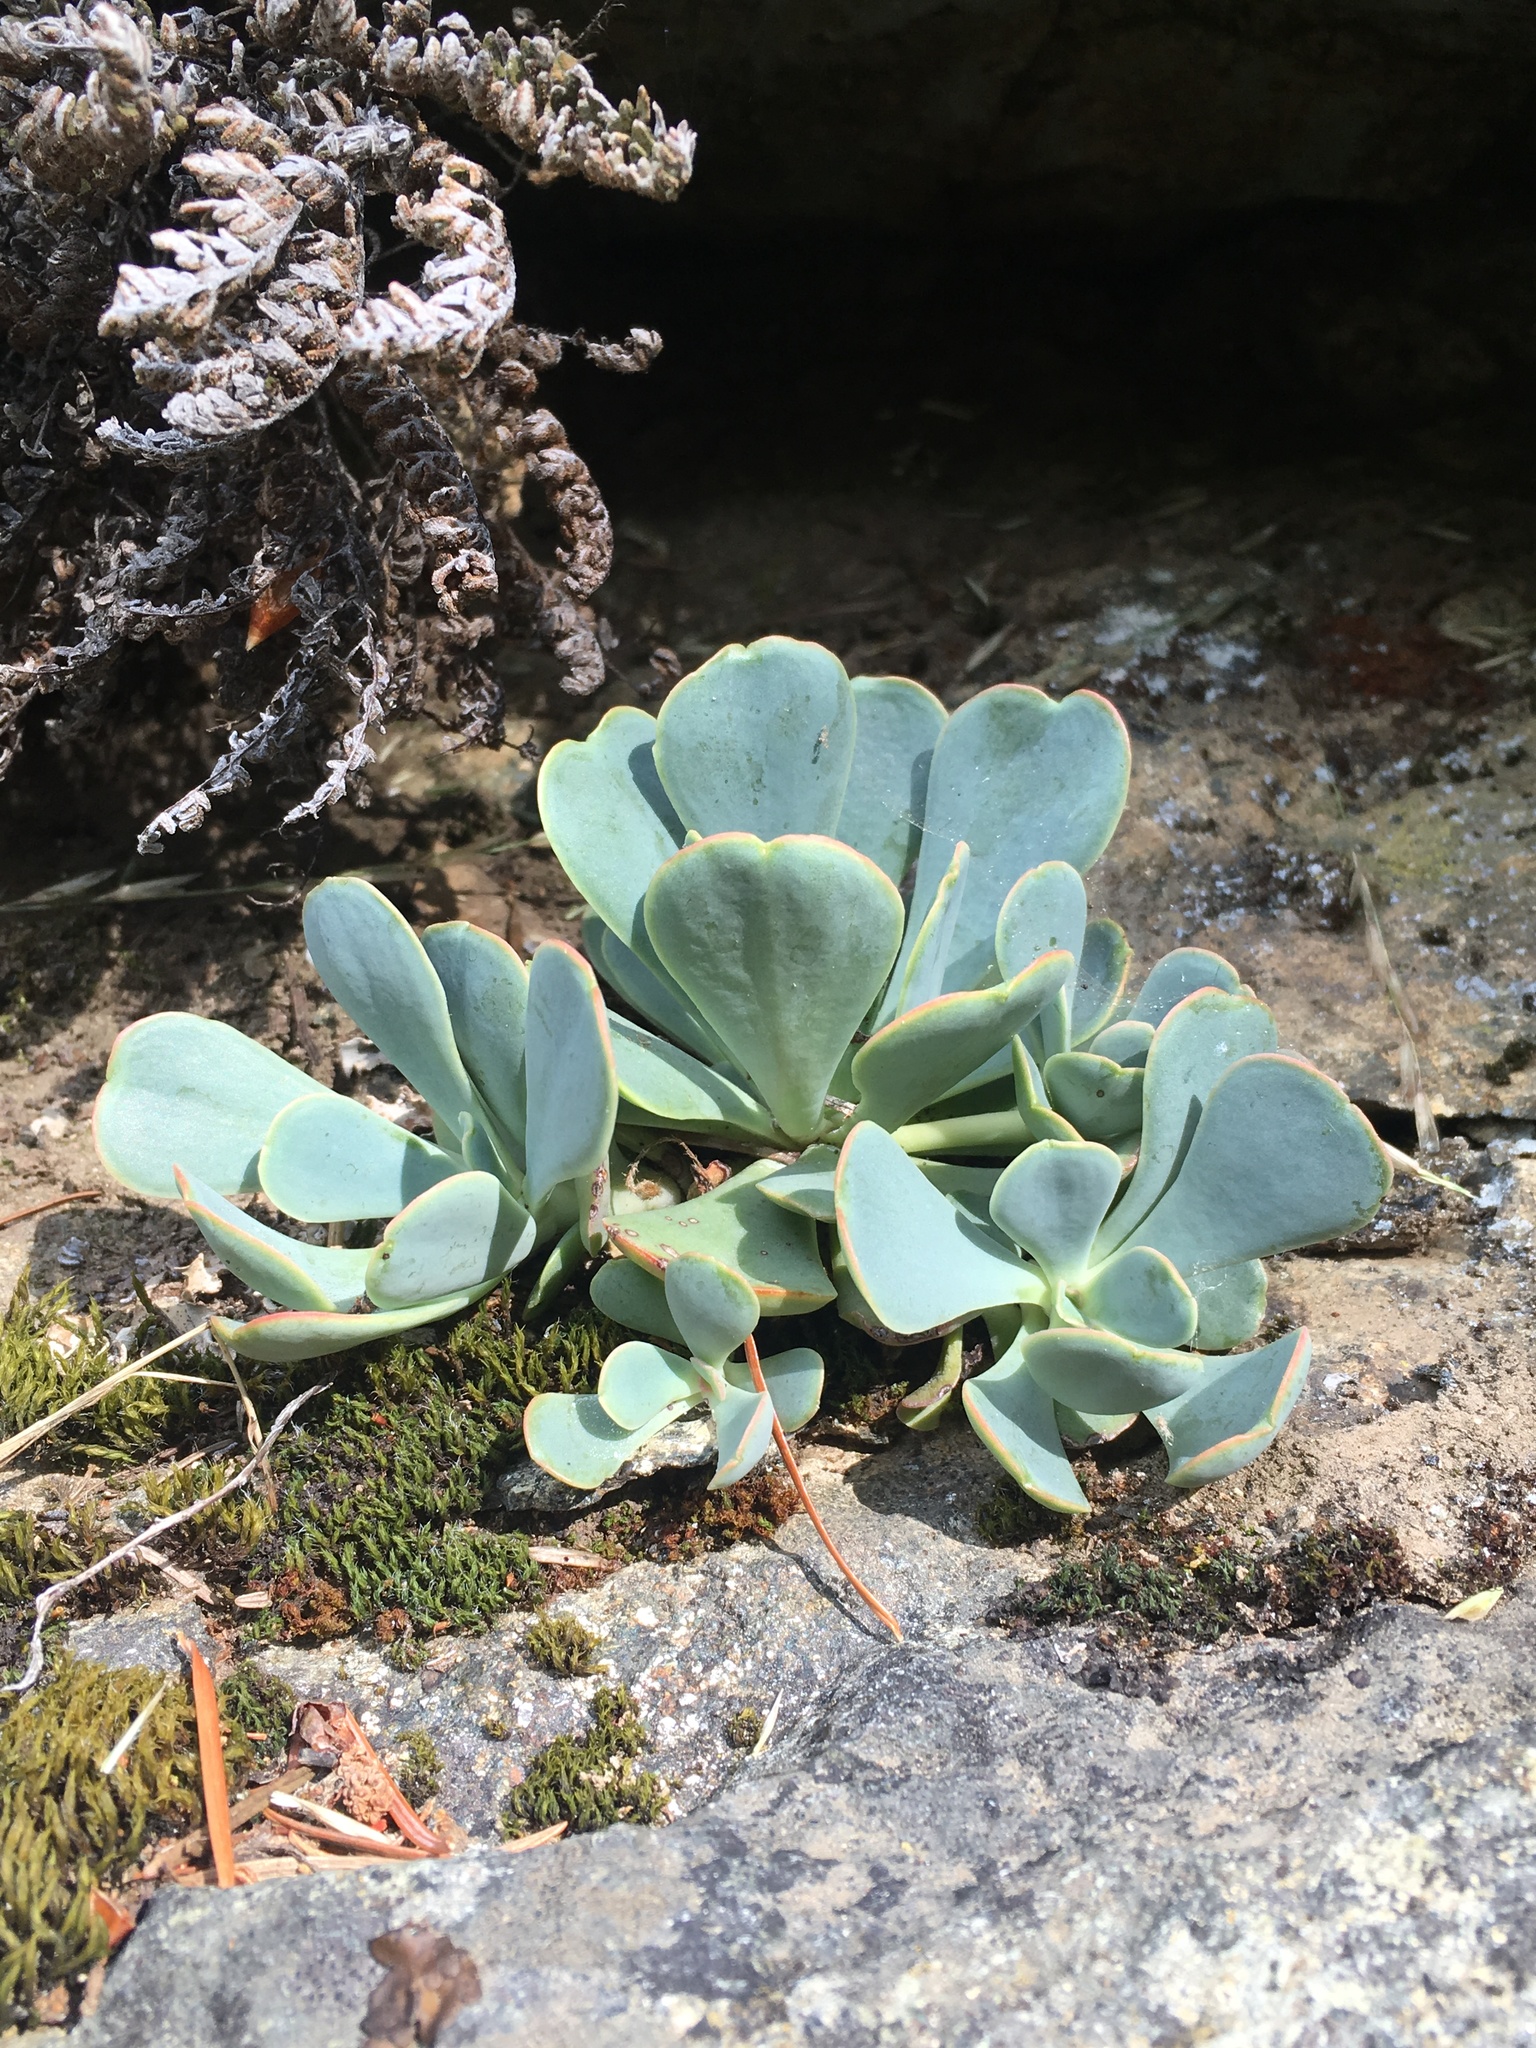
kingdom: Plantae
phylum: Tracheophyta
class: Magnoliopsida
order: Saxifragales
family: Crassulaceae
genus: Sedum
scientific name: Sedum paradisum
